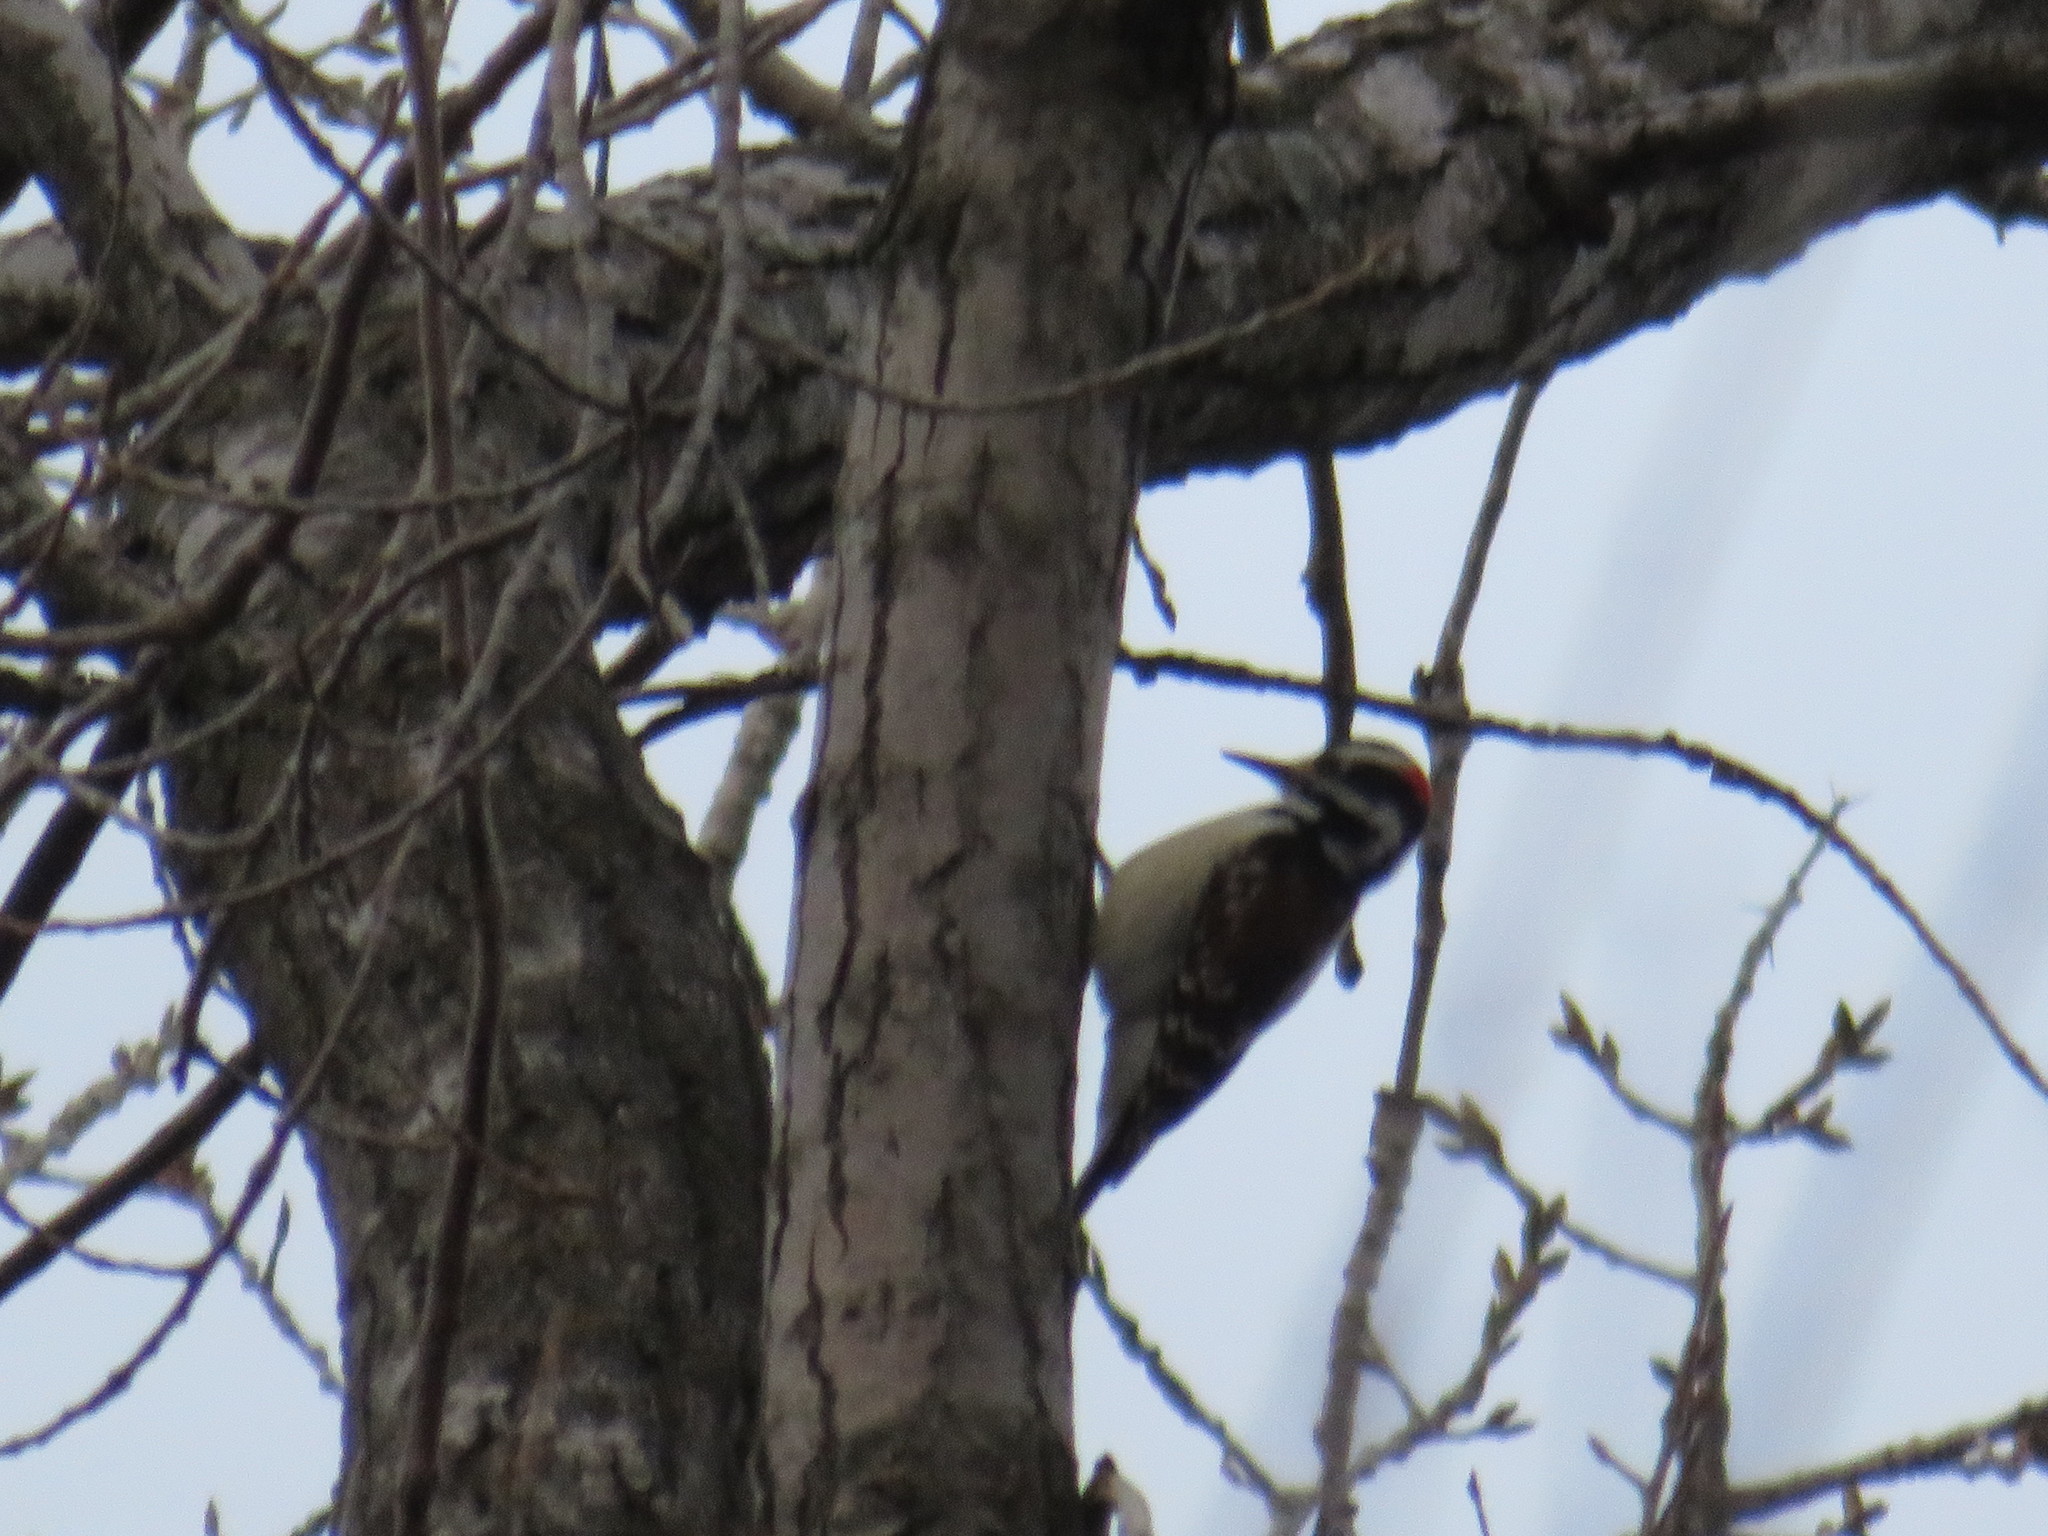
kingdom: Animalia
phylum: Chordata
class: Aves
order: Piciformes
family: Picidae
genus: Leuconotopicus
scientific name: Leuconotopicus villosus
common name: Hairy woodpecker
